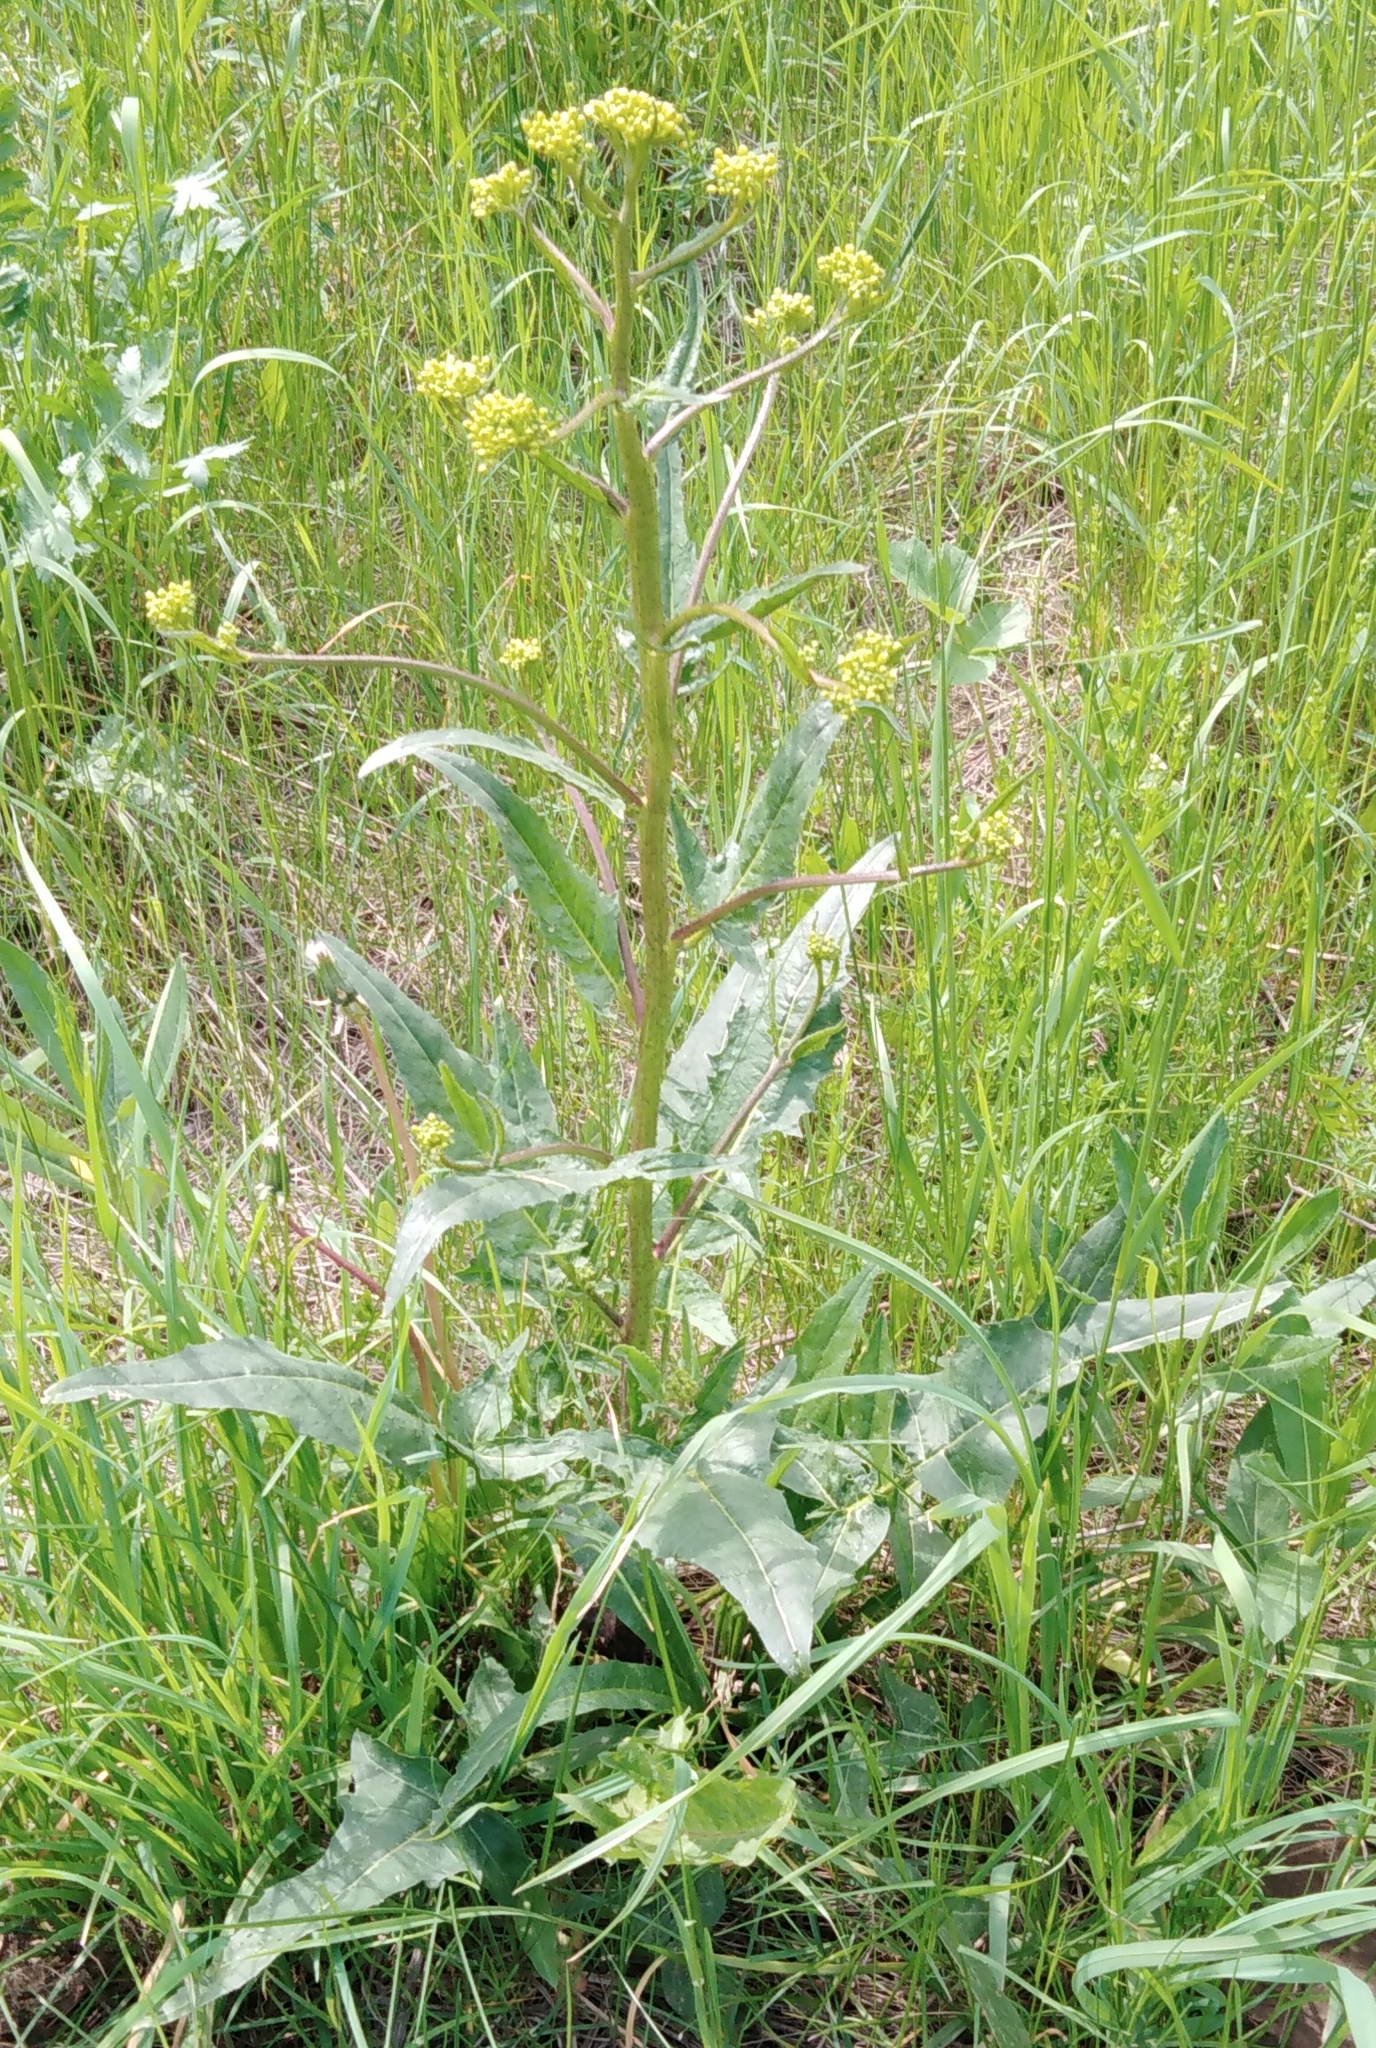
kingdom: Plantae
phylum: Tracheophyta
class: Magnoliopsida
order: Brassicales
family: Brassicaceae
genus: Bunias
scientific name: Bunias orientalis
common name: Warty-cabbage
